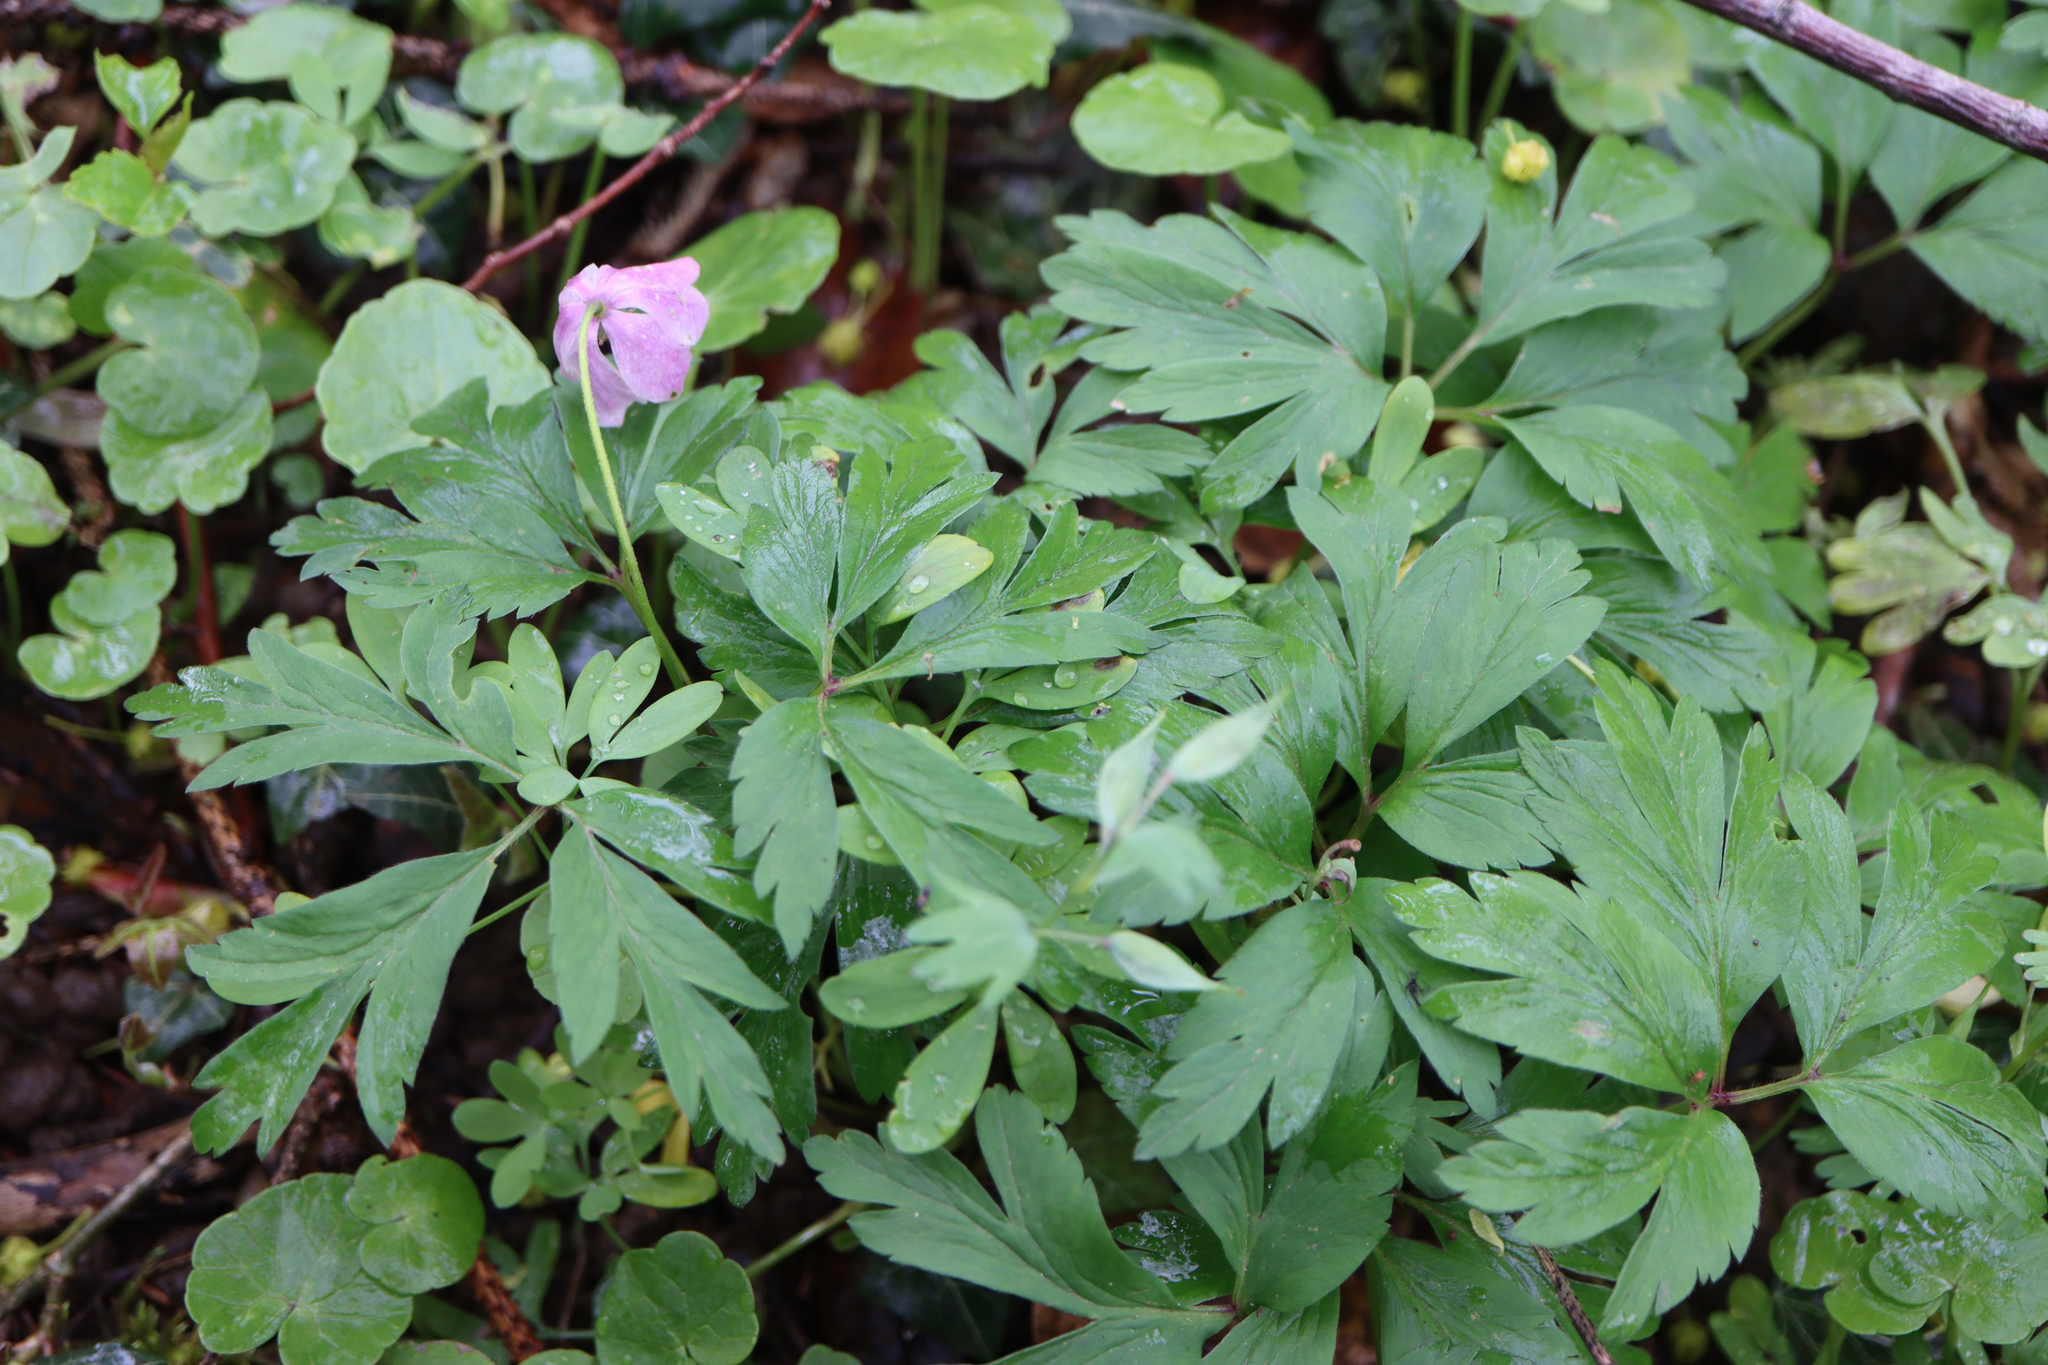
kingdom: Plantae
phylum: Tracheophyta
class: Magnoliopsida
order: Ranunculales
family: Ranunculaceae
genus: Anemone
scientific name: Anemone nemorosa
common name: Wood anemone
